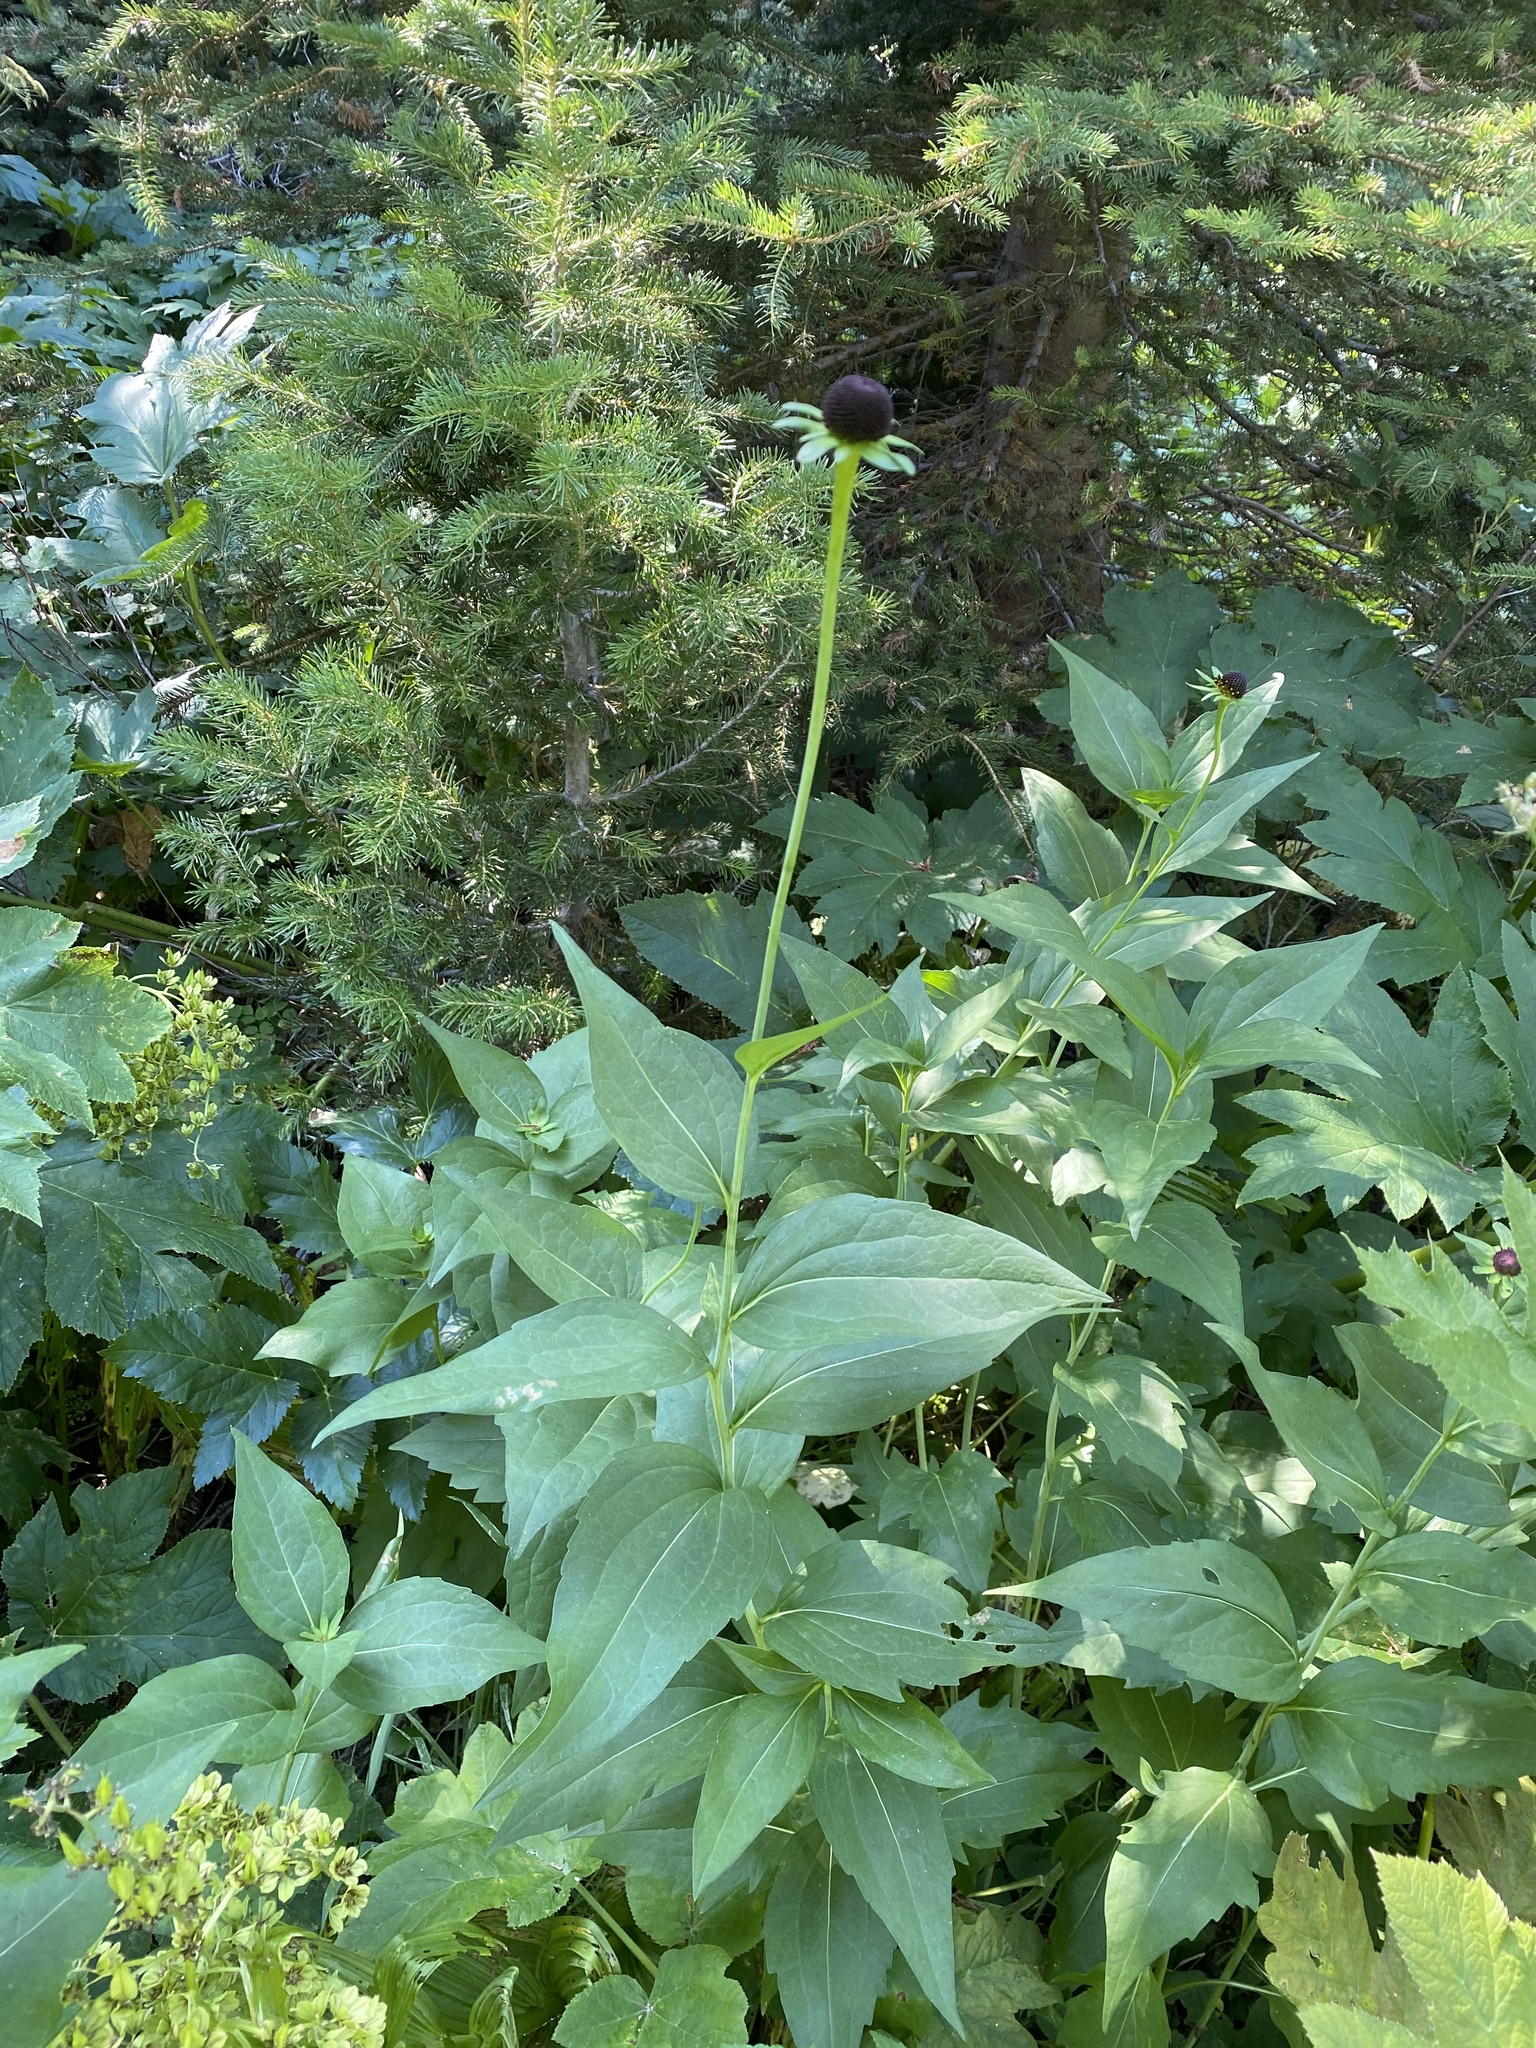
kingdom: Plantae
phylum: Tracheophyta
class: Magnoliopsida
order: Asterales
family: Asteraceae
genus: Rudbeckia
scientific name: Rudbeckia occidentalis
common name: Western coneflower
